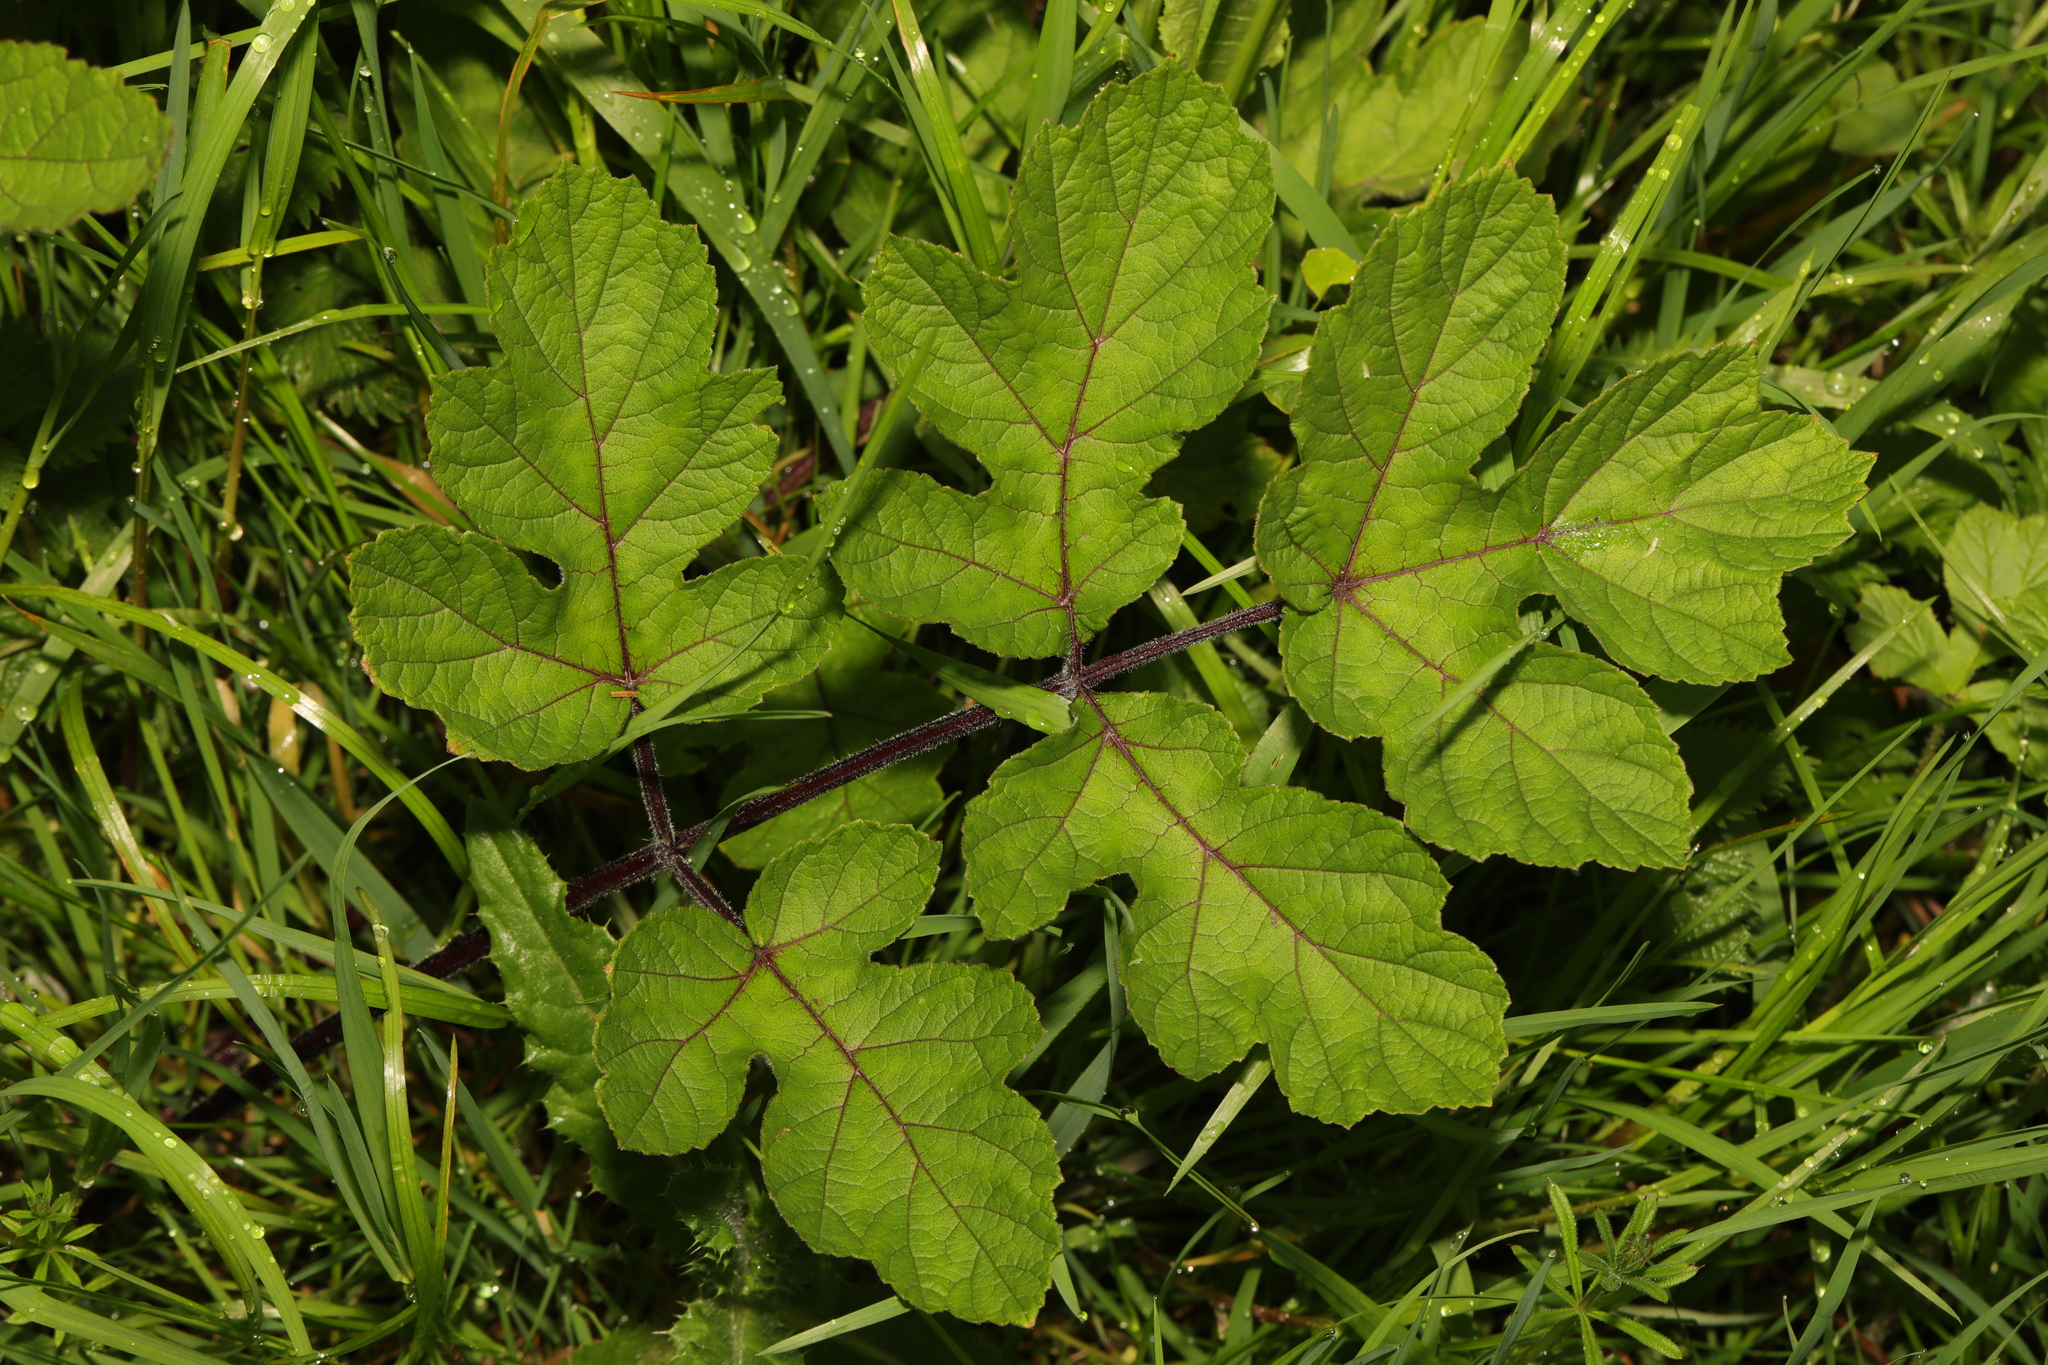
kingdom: Plantae
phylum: Tracheophyta
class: Magnoliopsida
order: Apiales
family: Apiaceae
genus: Heracleum
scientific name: Heracleum sphondylium
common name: Hogweed
